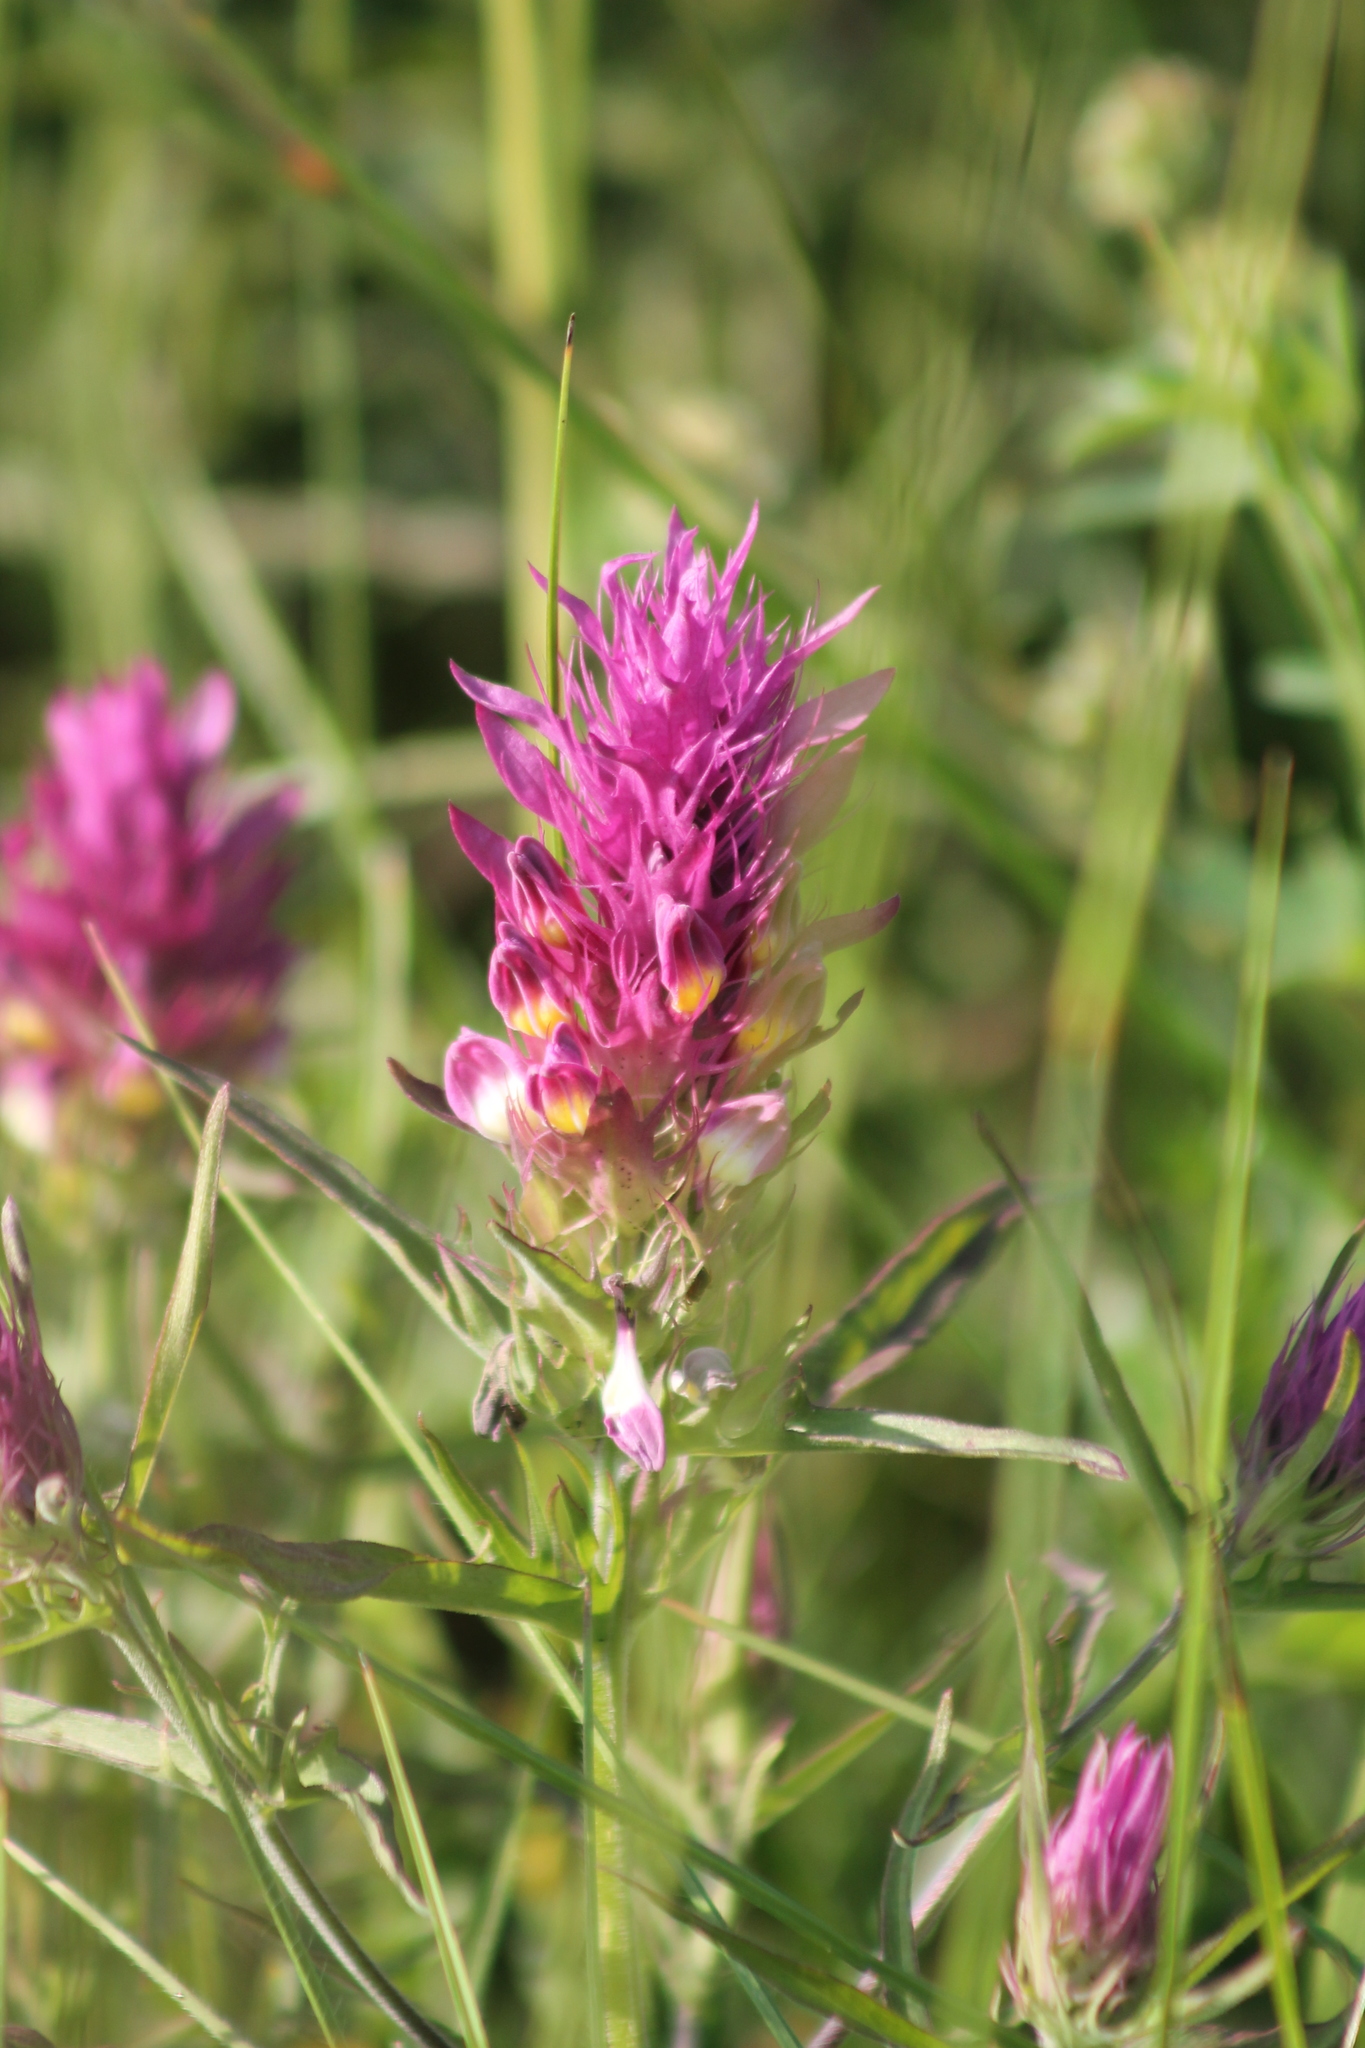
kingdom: Plantae
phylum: Tracheophyta
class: Magnoliopsida
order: Lamiales
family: Orobanchaceae
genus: Melampyrum
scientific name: Melampyrum arvense
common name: Field cow-wheat
